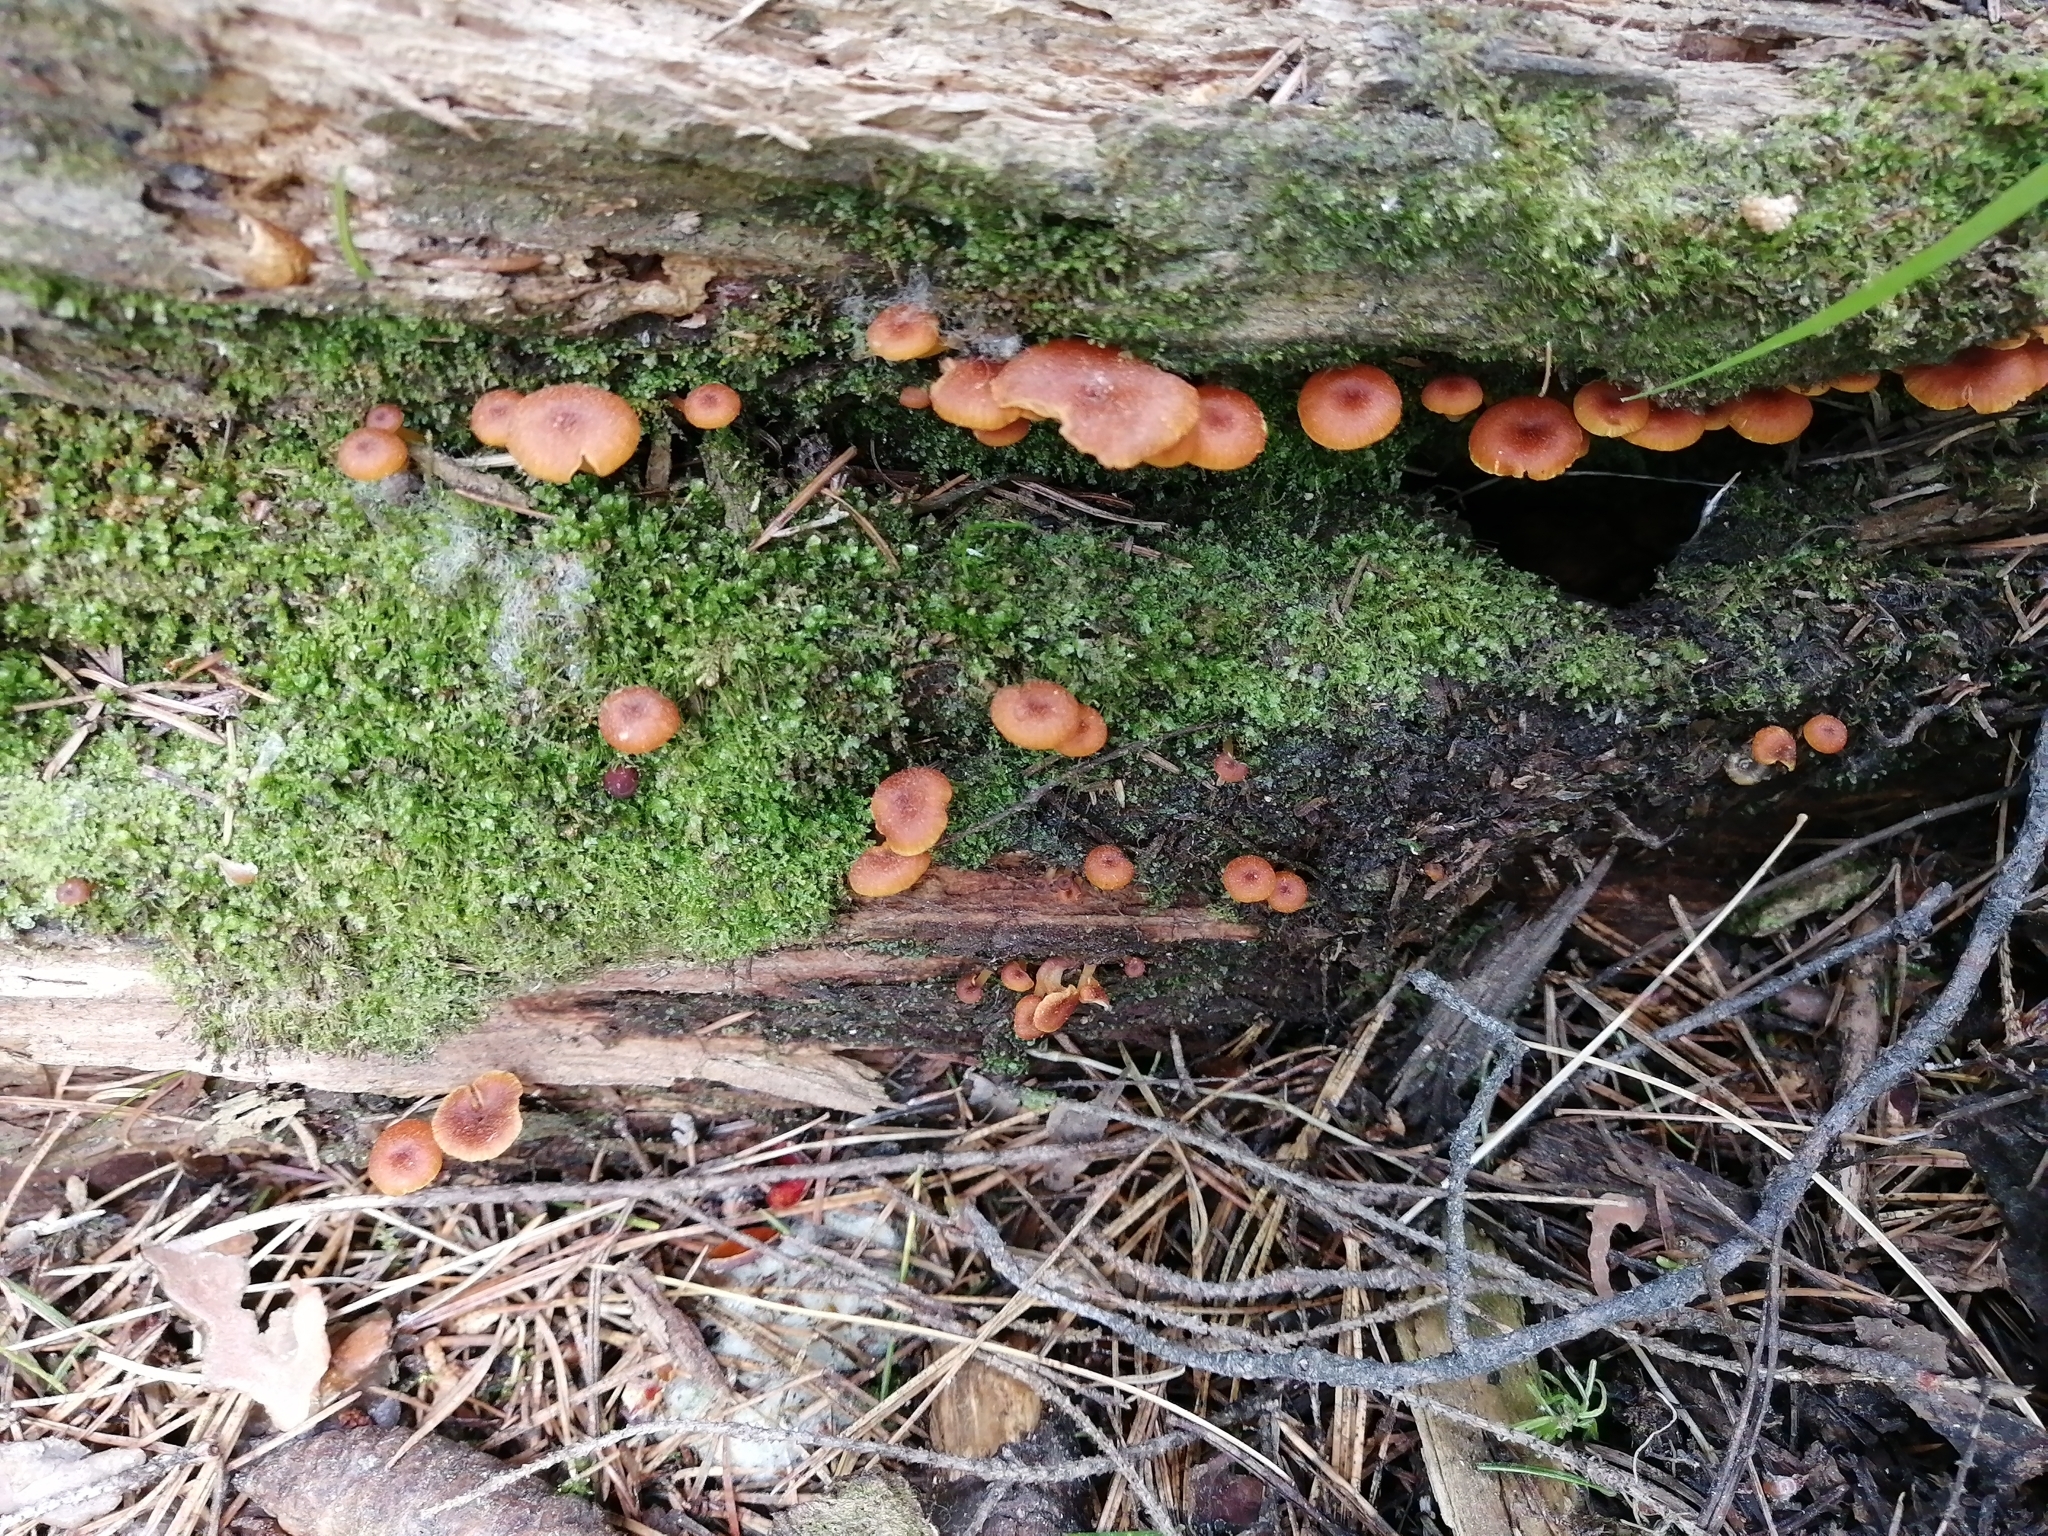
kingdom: Fungi
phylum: Basidiomycota
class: Agaricomycetes
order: Agaricales
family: Mycenaceae
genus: Xeromphalina
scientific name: Xeromphalina campanella
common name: Pinewood gingertail
